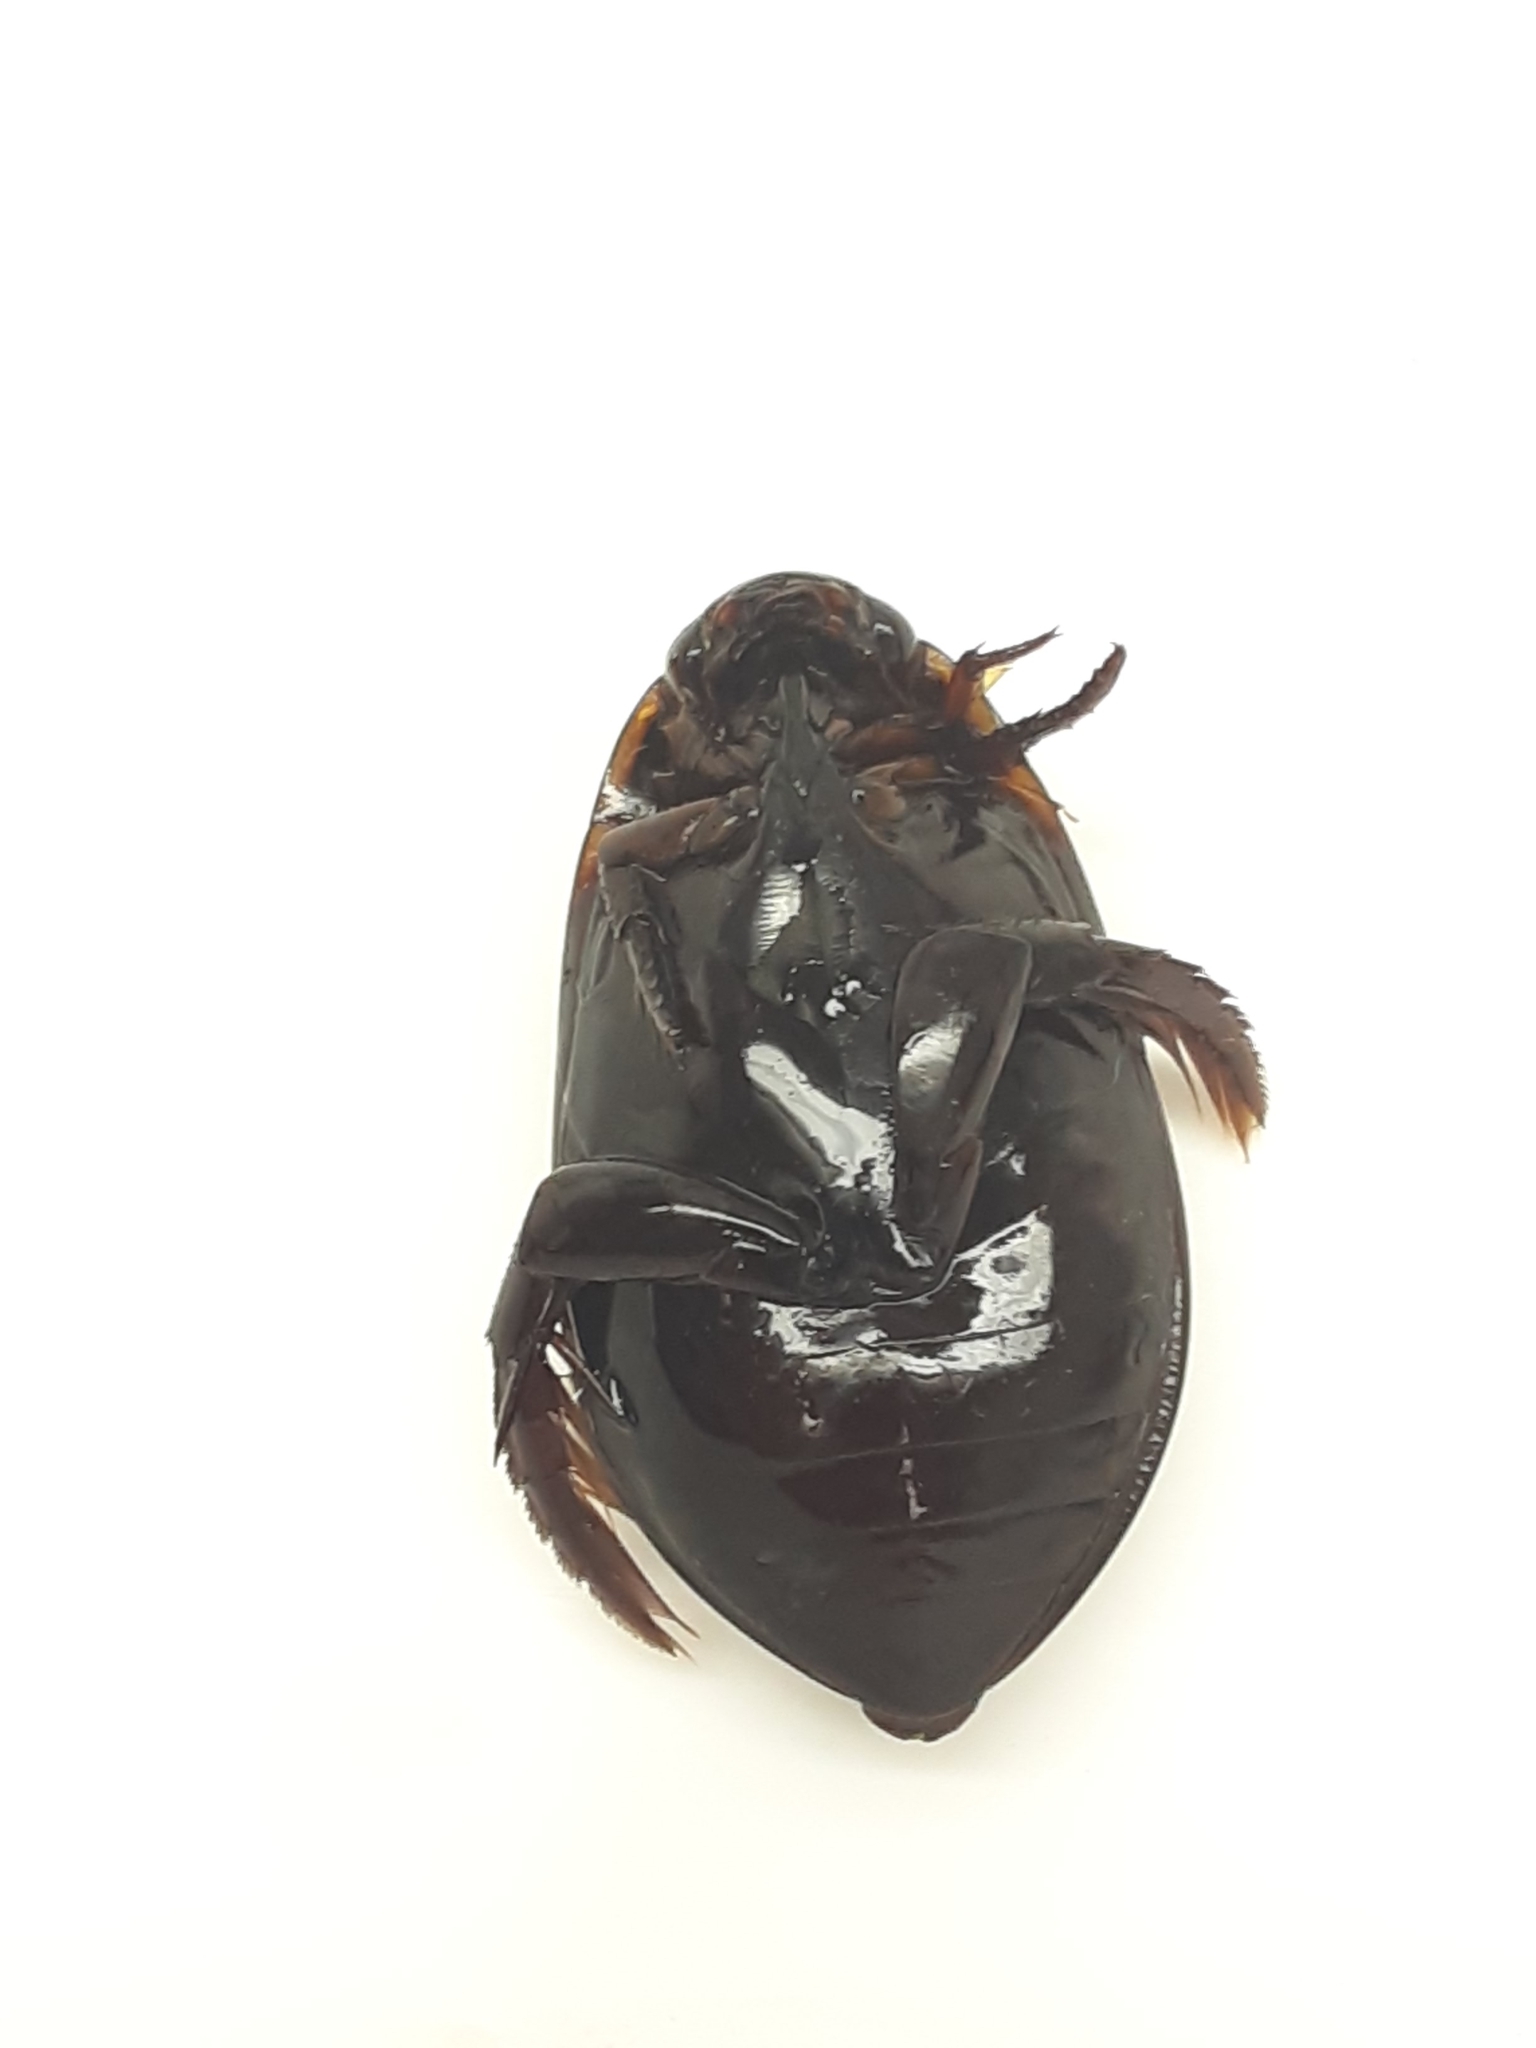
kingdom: Animalia
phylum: Arthropoda
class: Insecta
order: Coleoptera
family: Dytiscidae
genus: Cybister
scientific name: Cybister fimbriolatus
